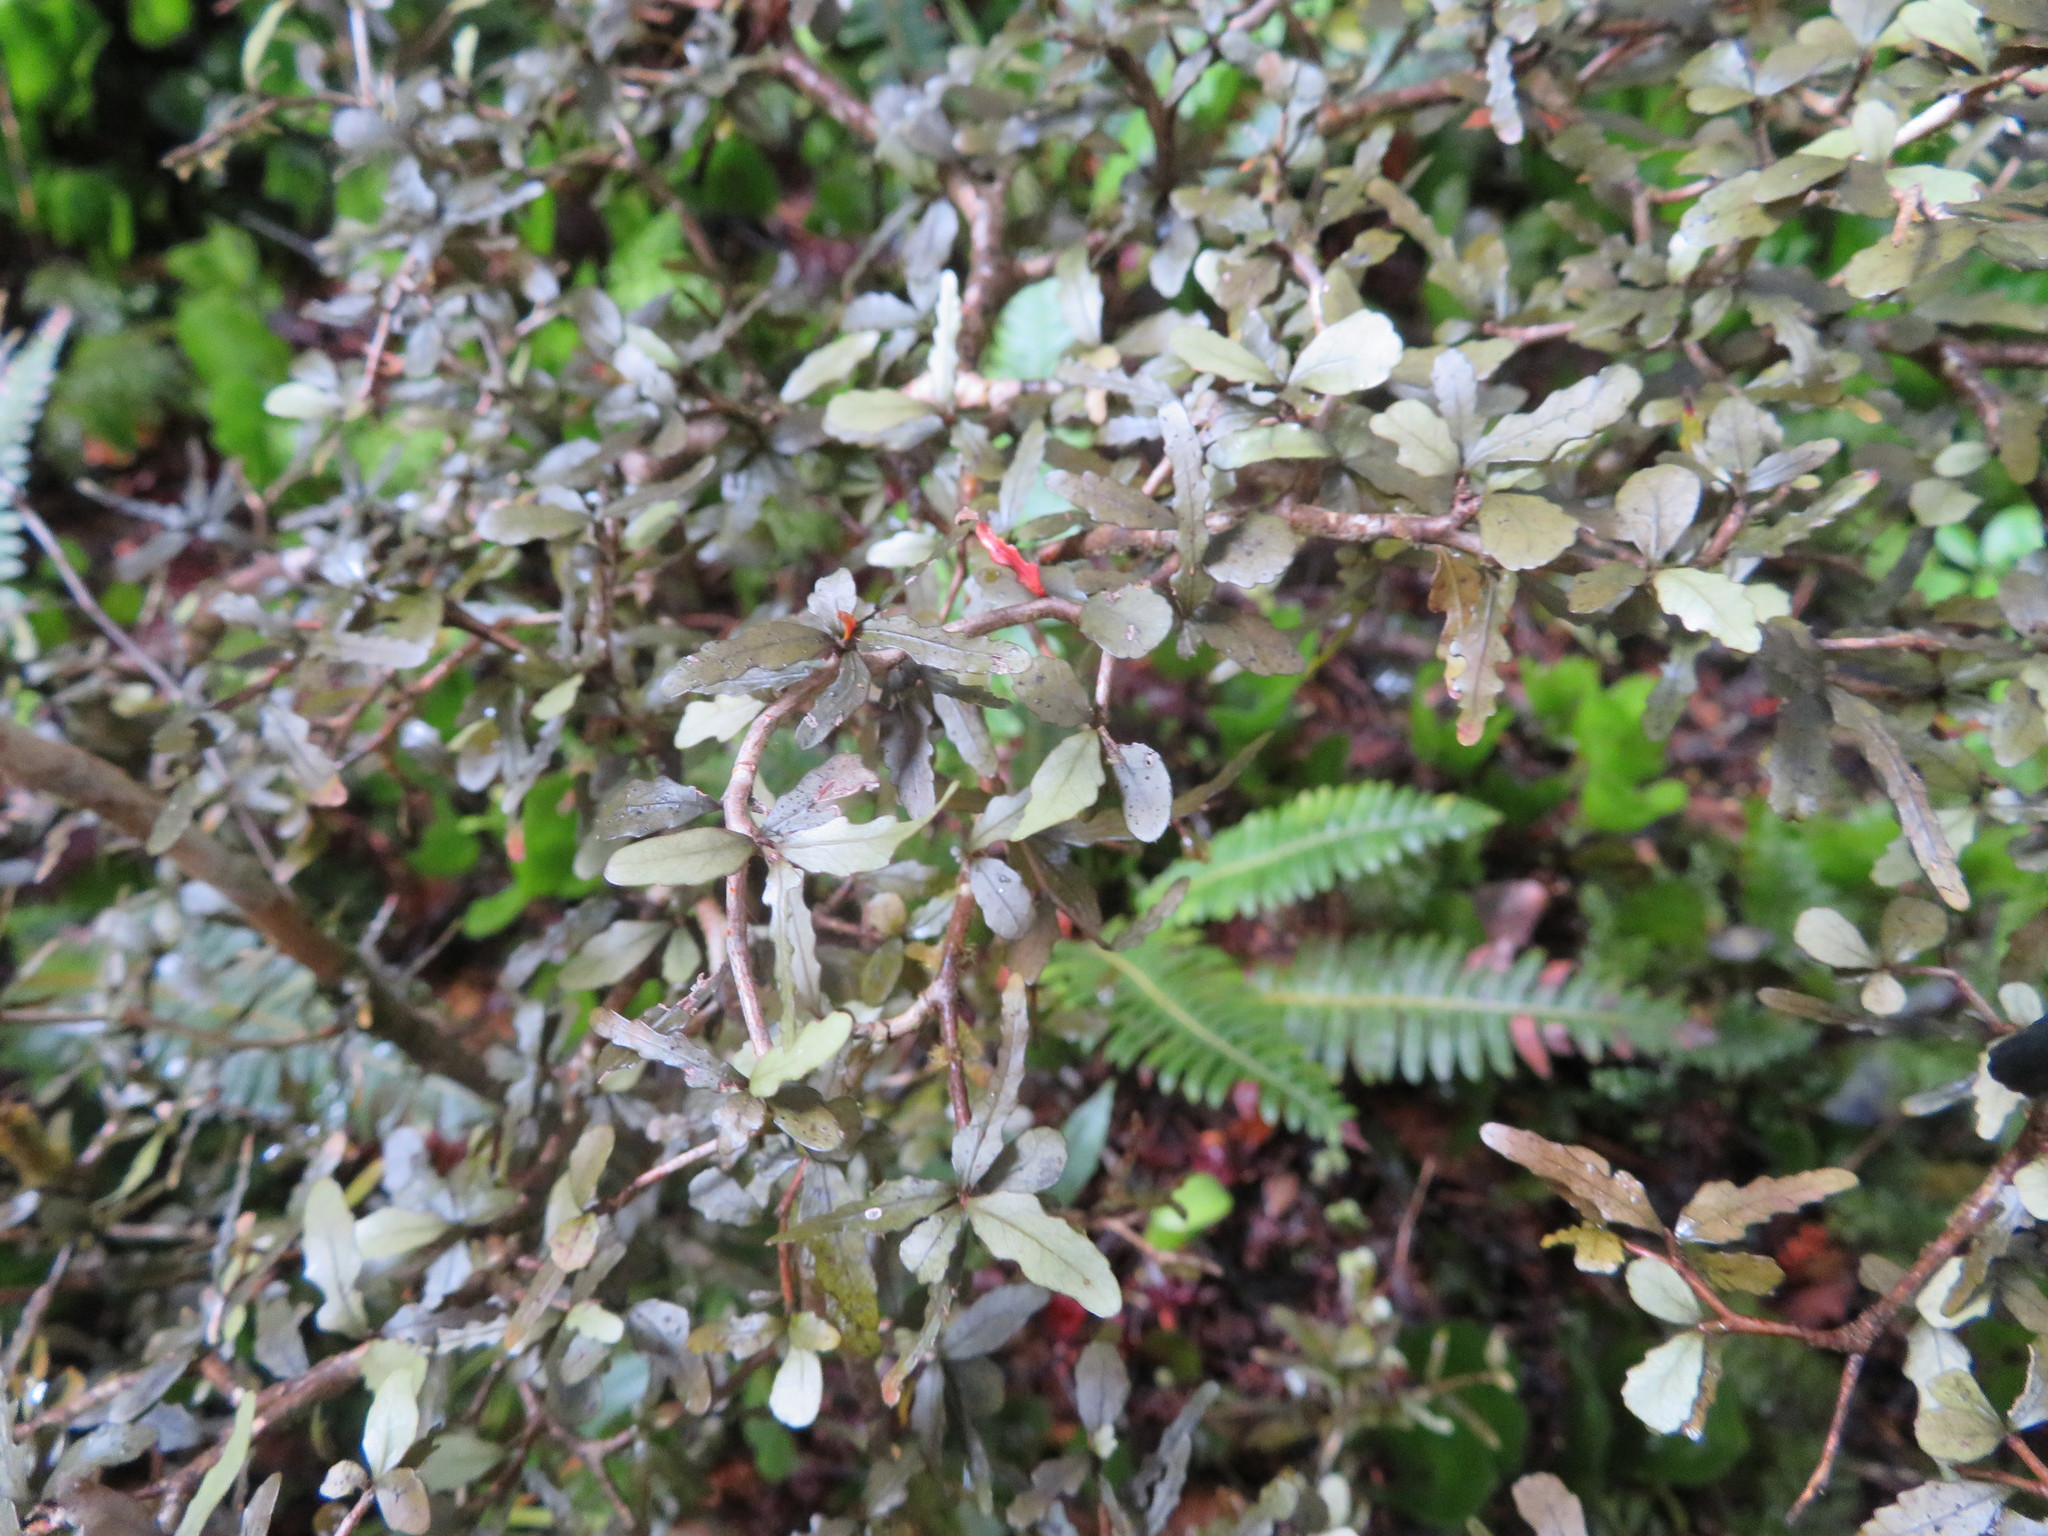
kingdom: Plantae
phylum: Tracheophyta
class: Magnoliopsida
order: Oxalidales
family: Elaeocarpaceae
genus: Elaeocarpus
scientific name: Elaeocarpus hookerianus
